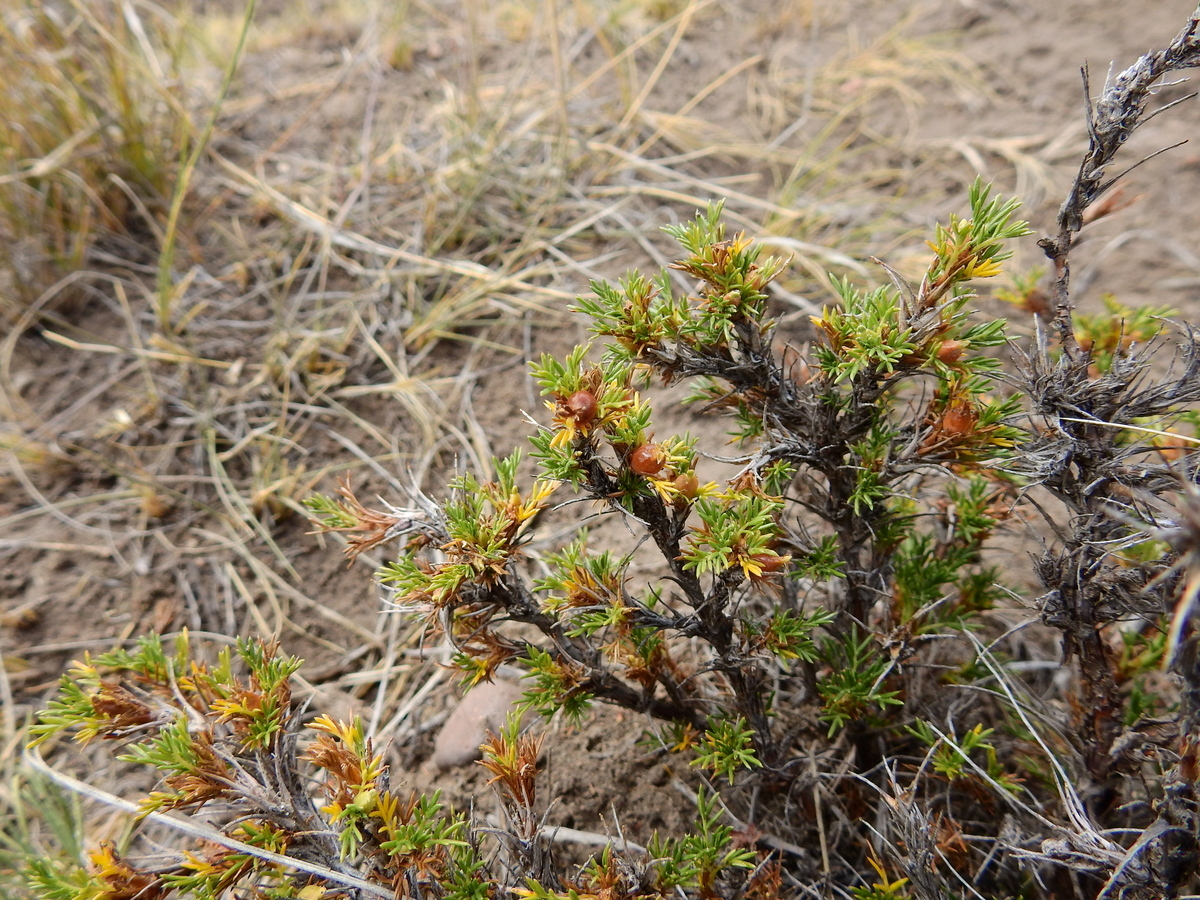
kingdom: Plantae
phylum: Tracheophyta
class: Magnoliopsida
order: Rosales
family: Rosaceae
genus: Margyricarpus
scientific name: Margyricarpus pinnatus
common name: Pearlfruit
